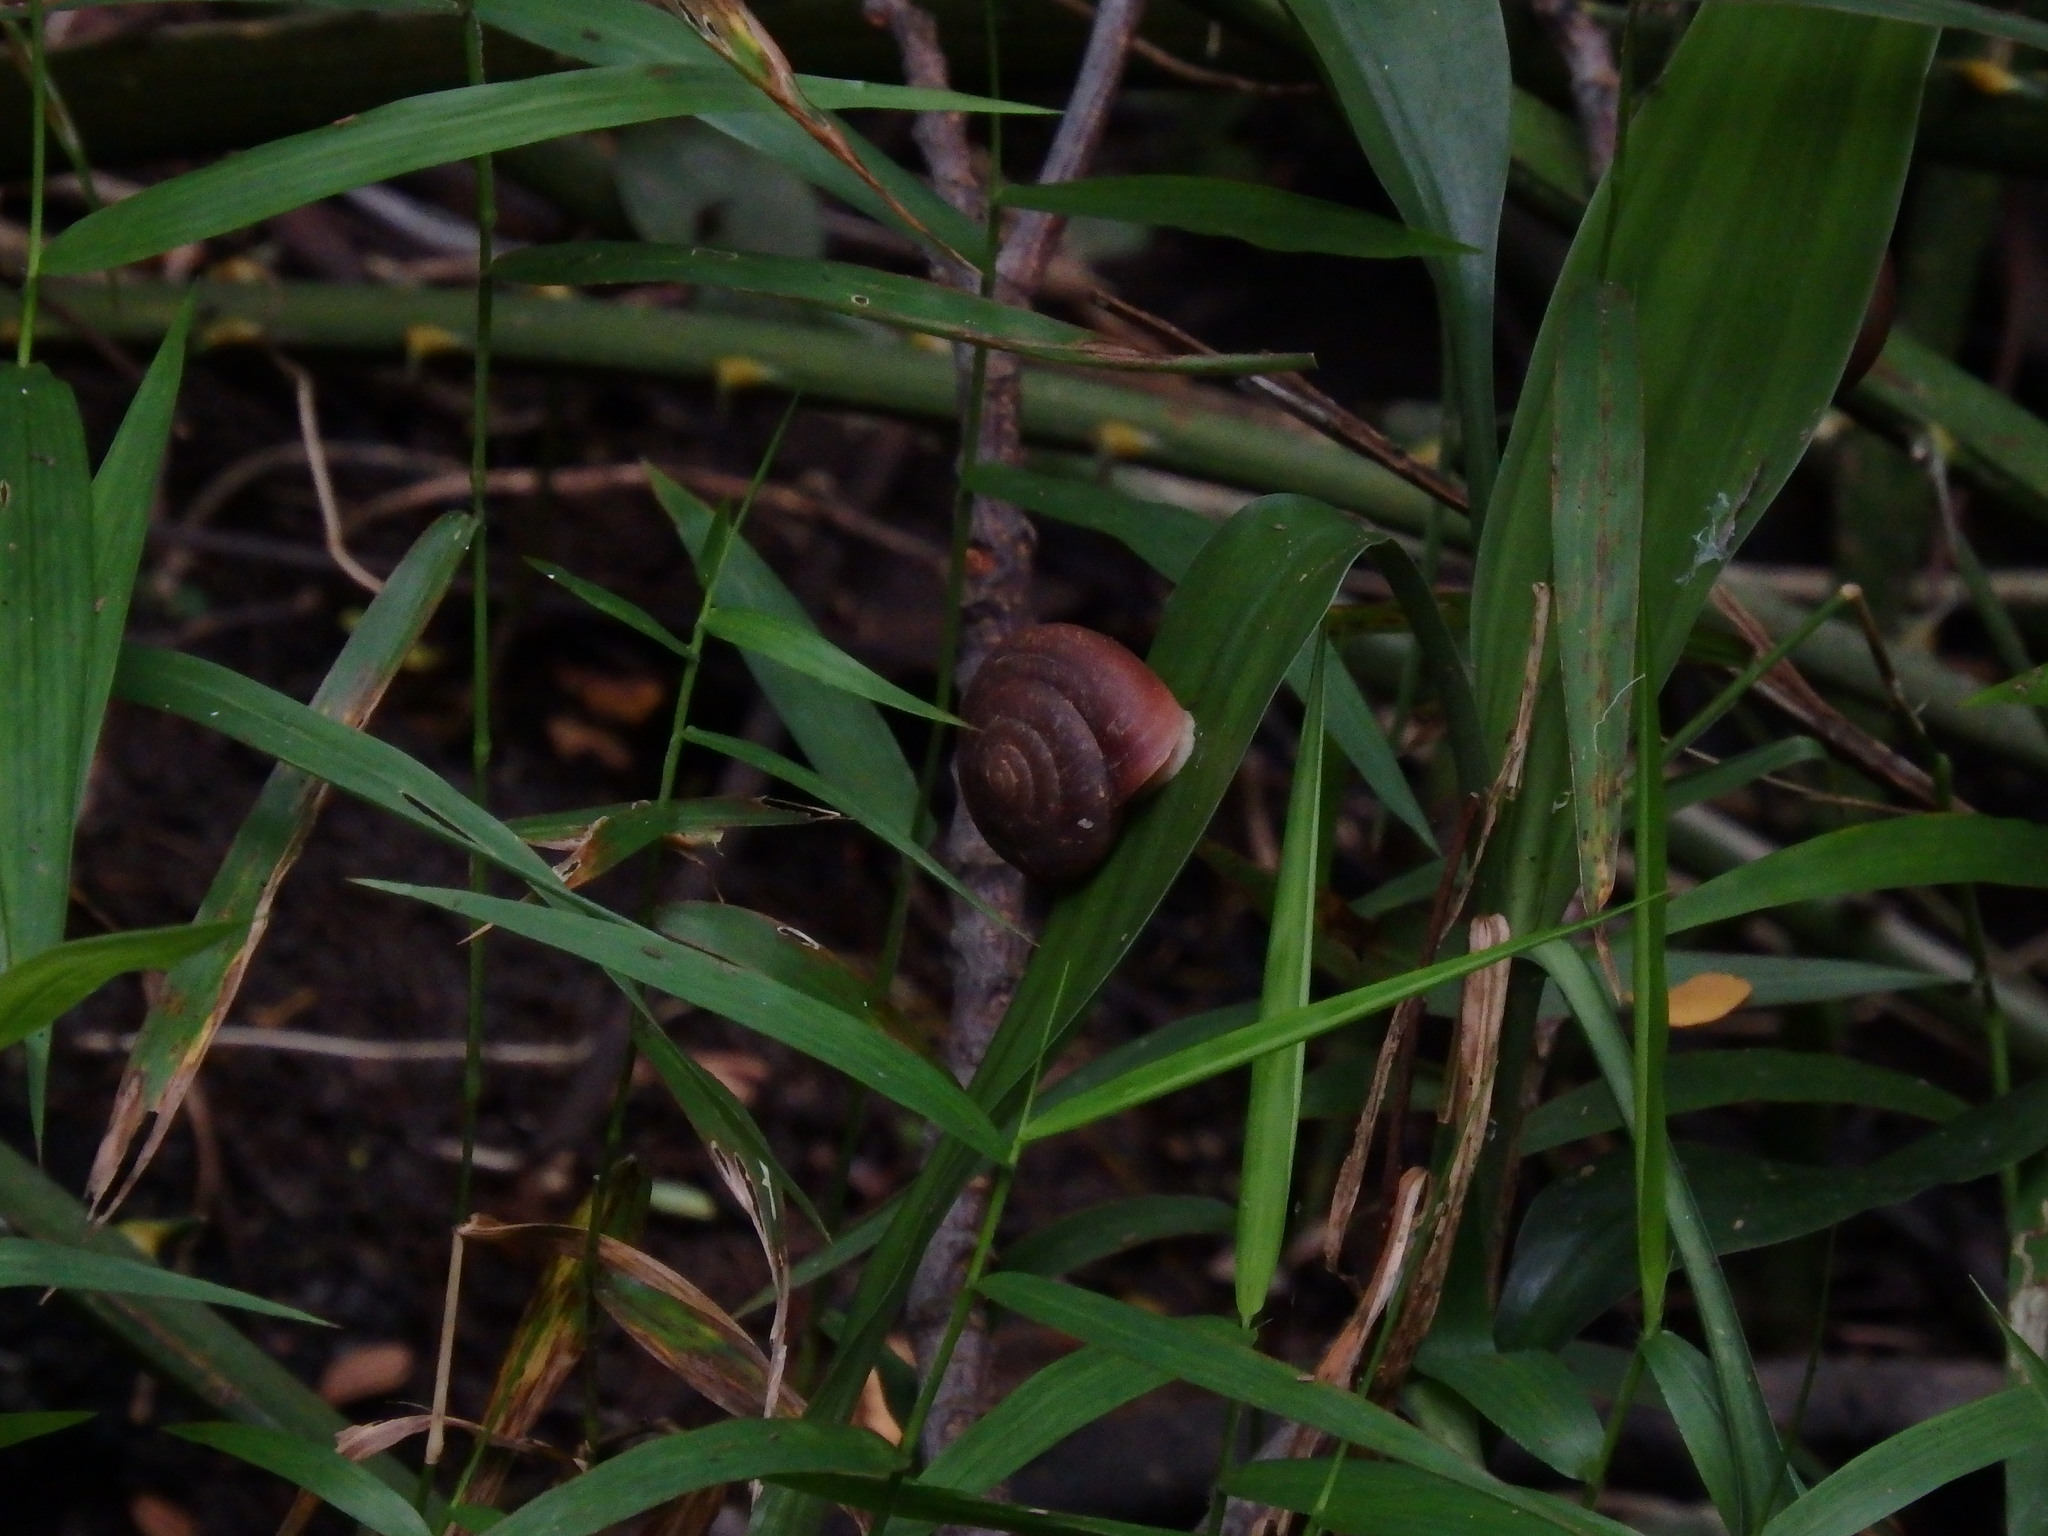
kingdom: Animalia
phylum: Mollusca
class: Gastropoda
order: Stylommatophora
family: Dyakiidae
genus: Quantula
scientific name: Quantula striata
